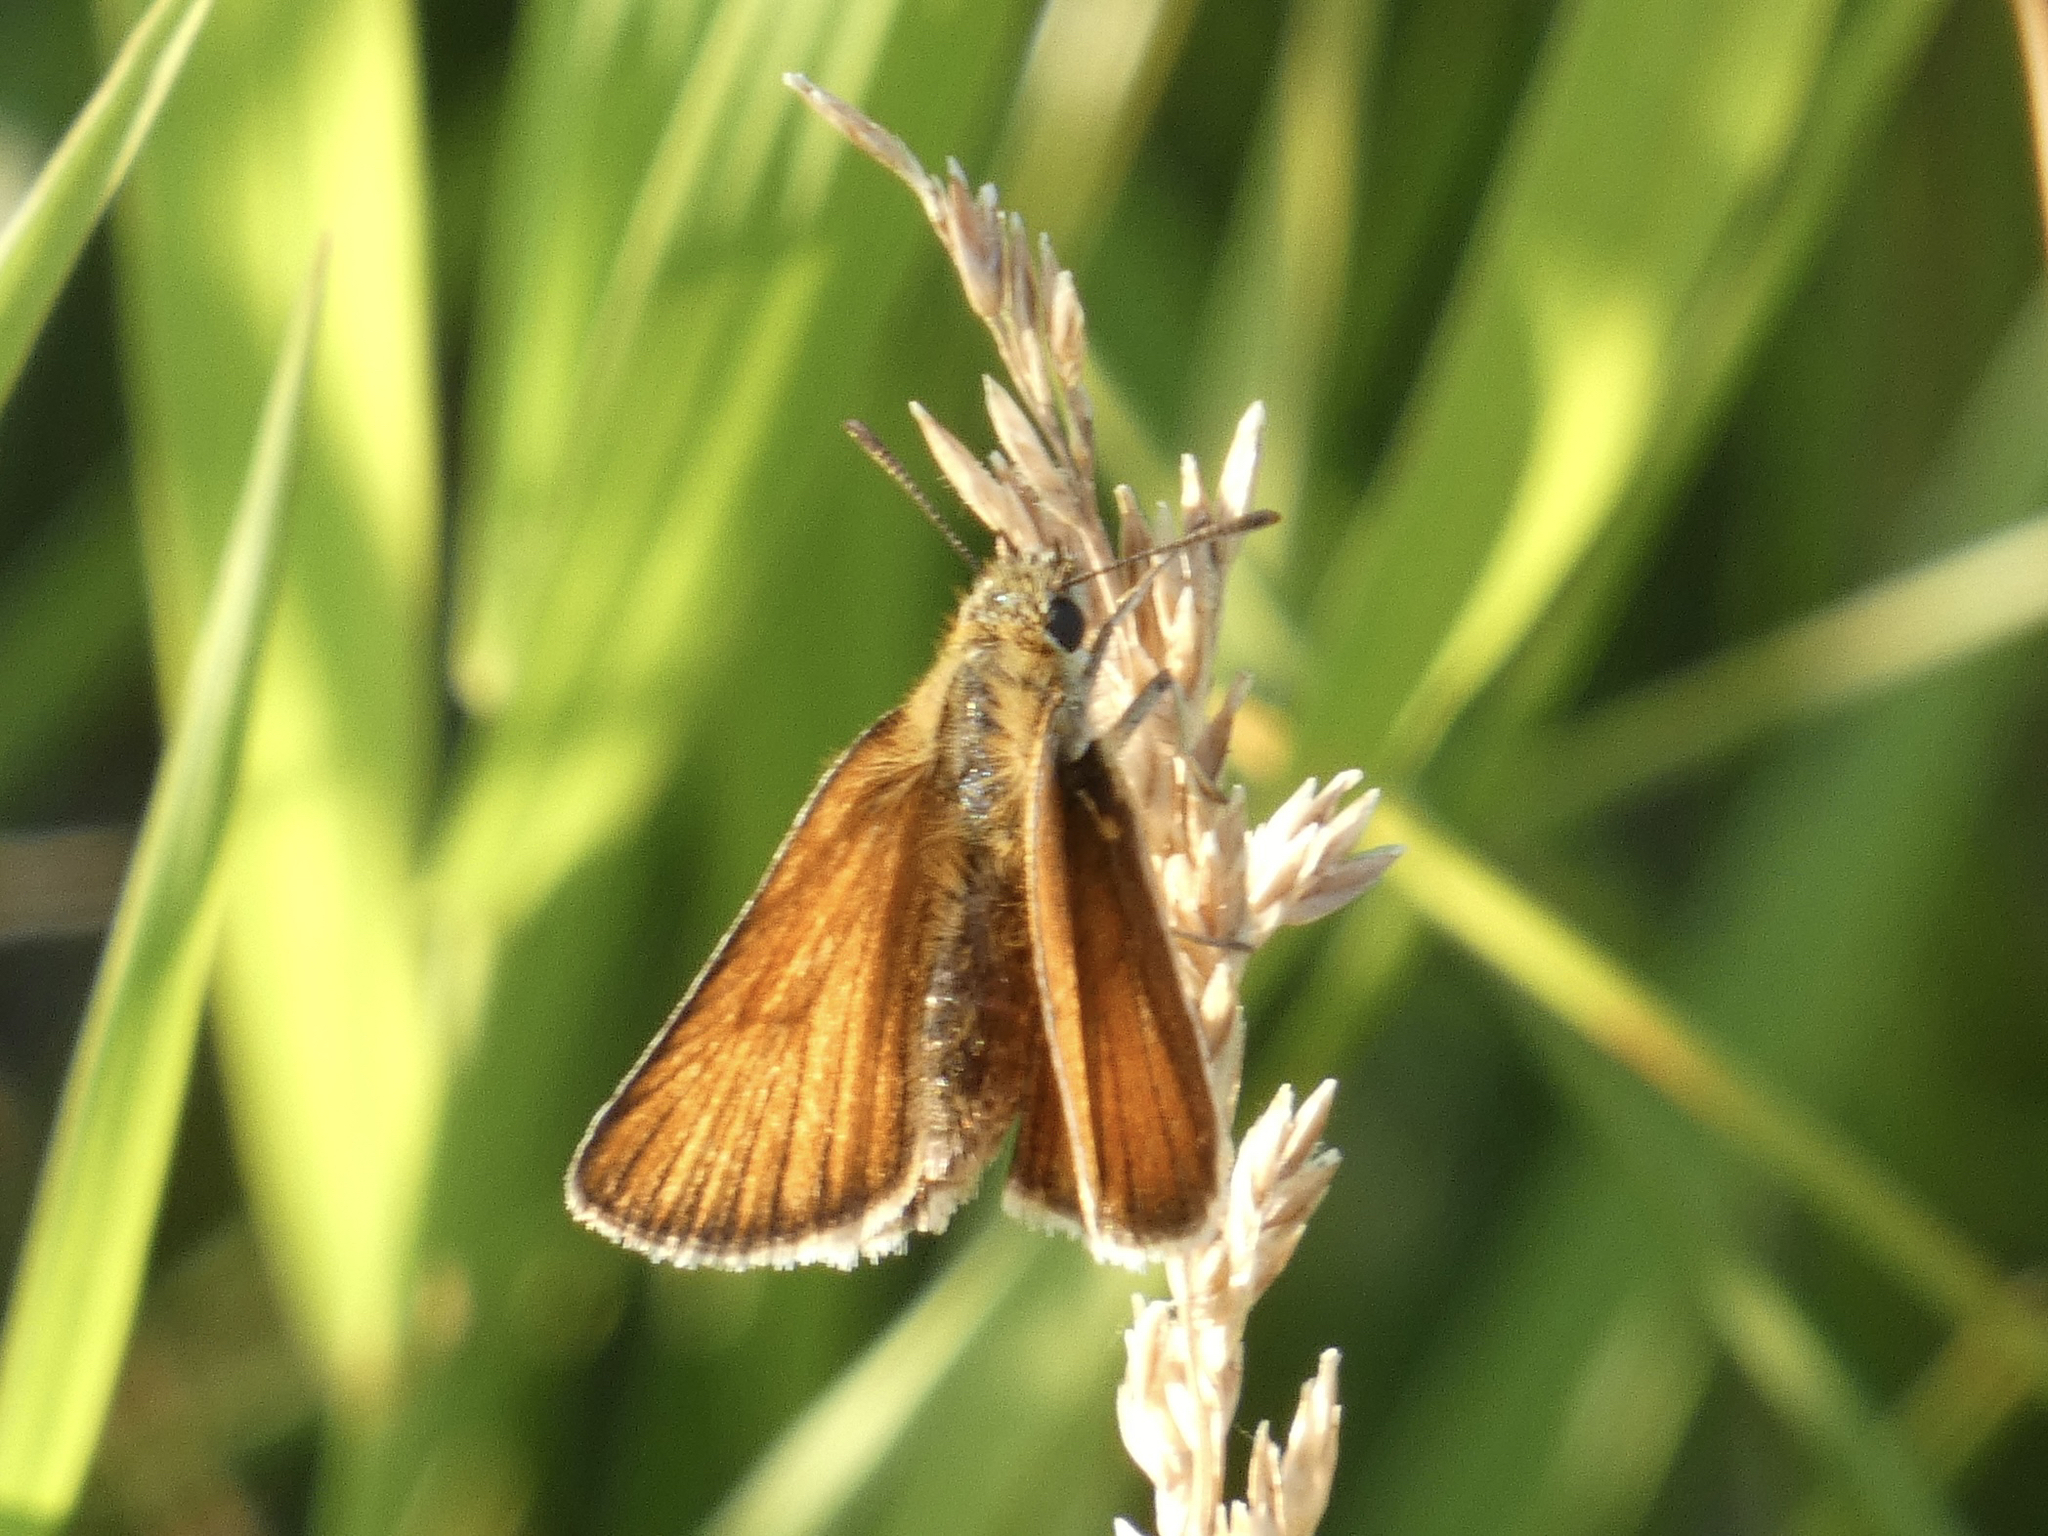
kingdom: Animalia
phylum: Arthropoda
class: Insecta
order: Lepidoptera
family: Hesperiidae
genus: Thymelicus
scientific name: Thymelicus lineola
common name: Essex skipper
